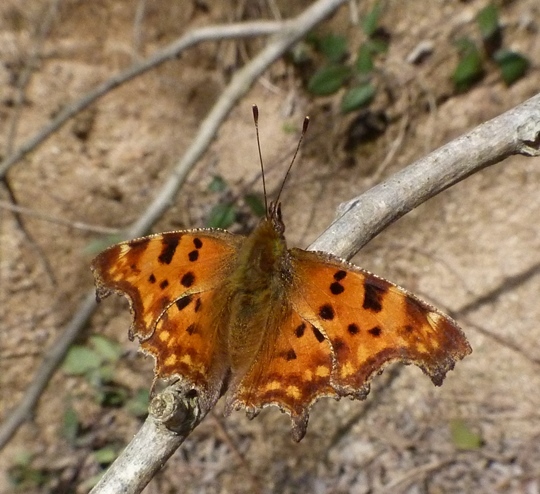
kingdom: Animalia
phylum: Arthropoda
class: Insecta
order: Lepidoptera
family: Nymphalidae
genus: Polygonia
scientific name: Polygonia c-album
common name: Comma
